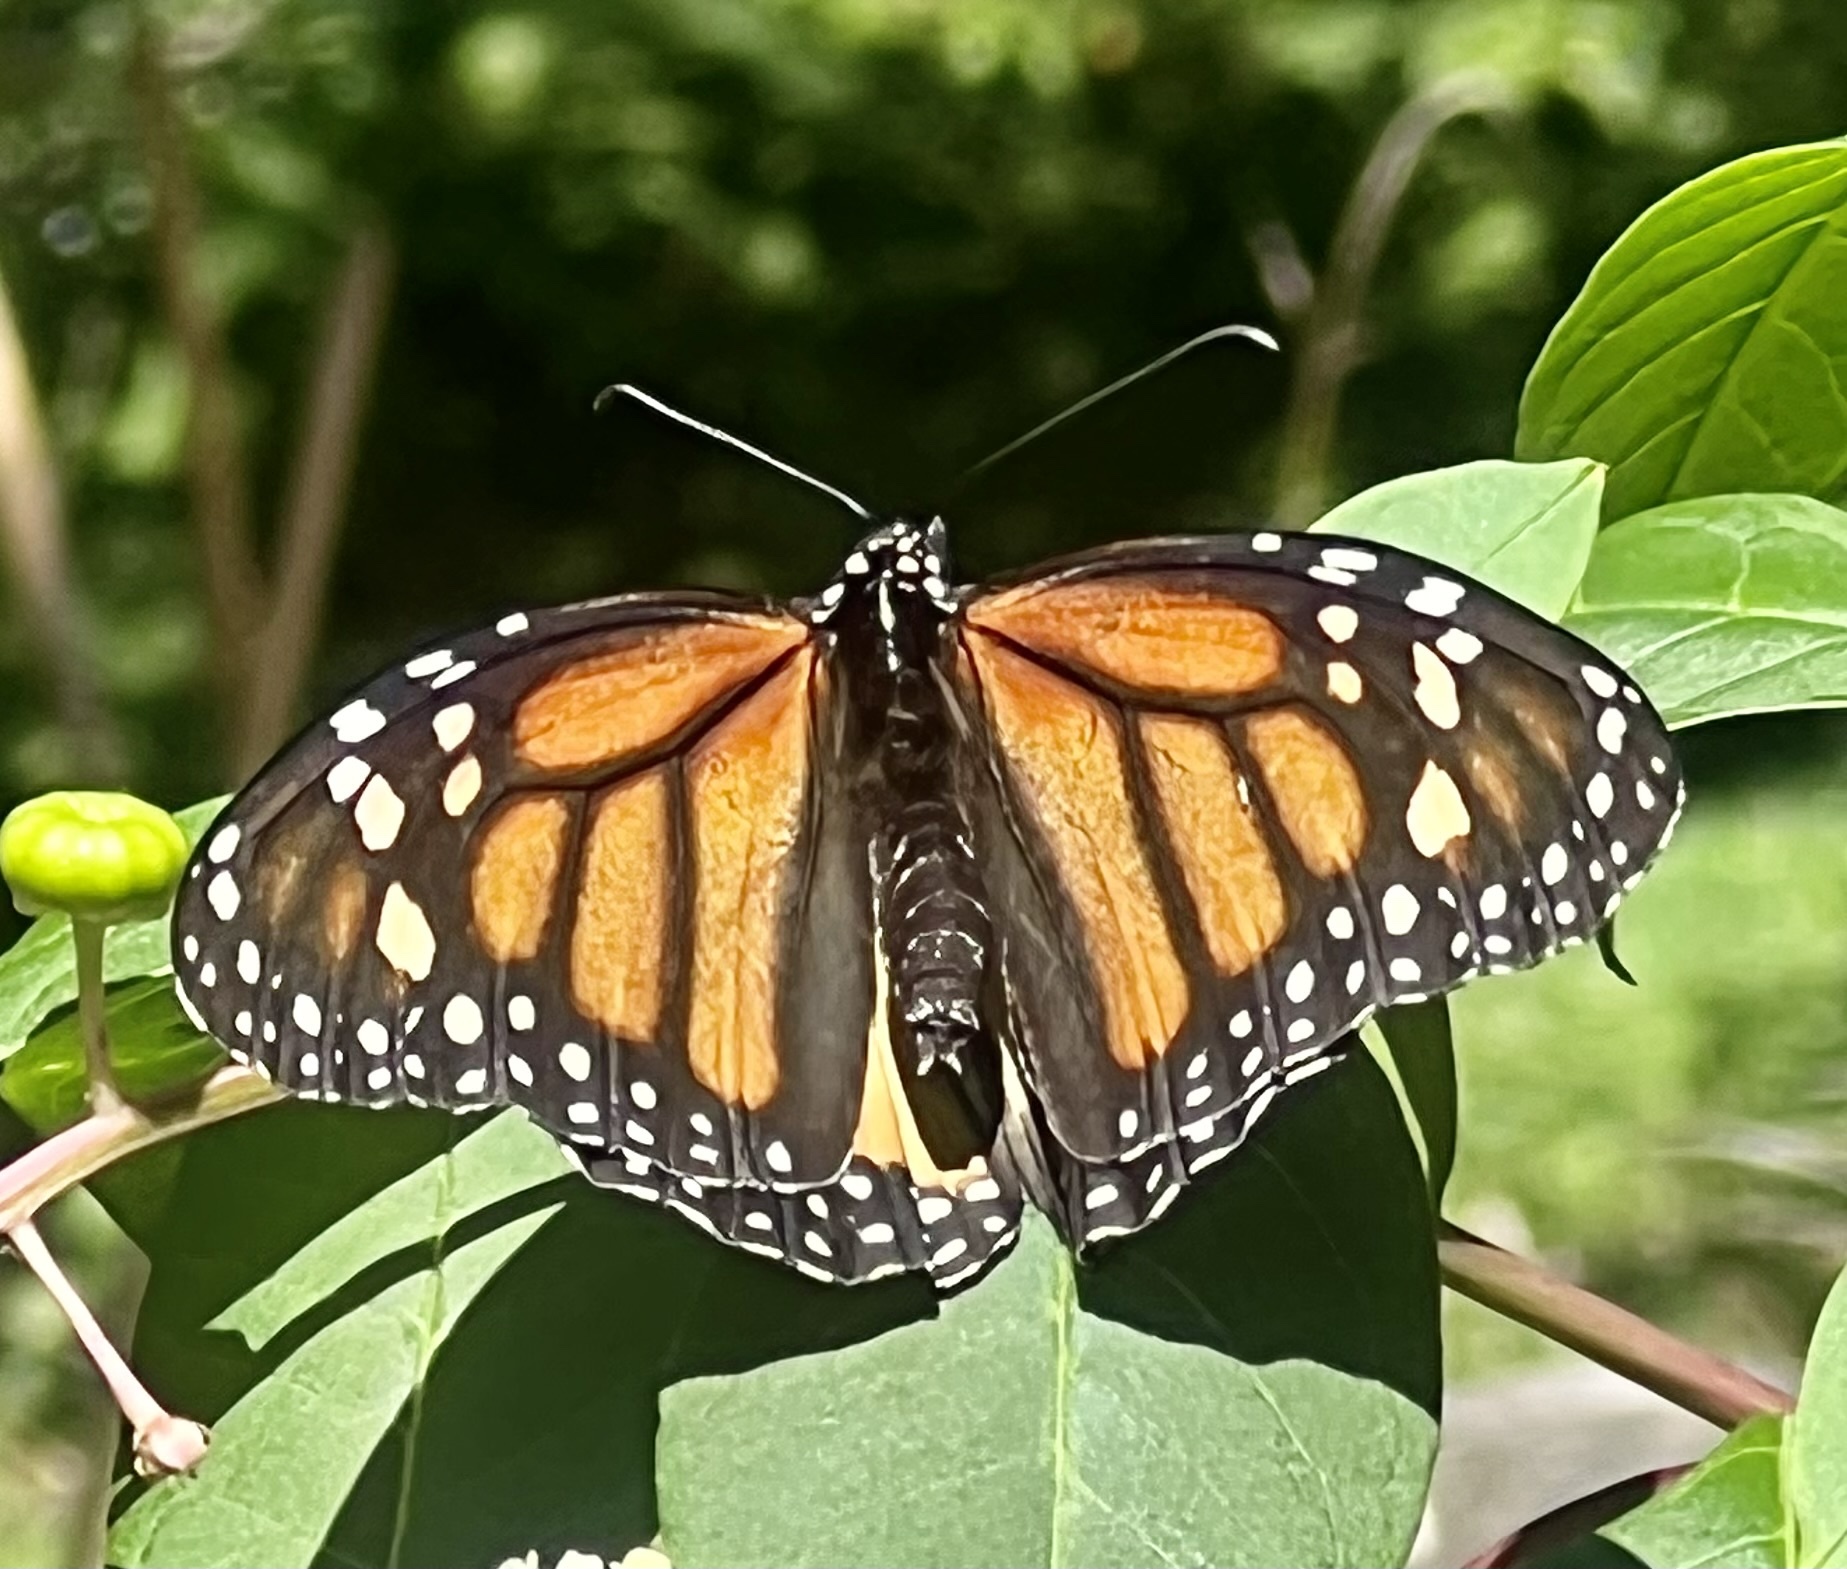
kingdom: Animalia
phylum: Arthropoda
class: Insecta
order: Lepidoptera
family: Nymphalidae
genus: Danaus
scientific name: Danaus plexippus
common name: Monarch
